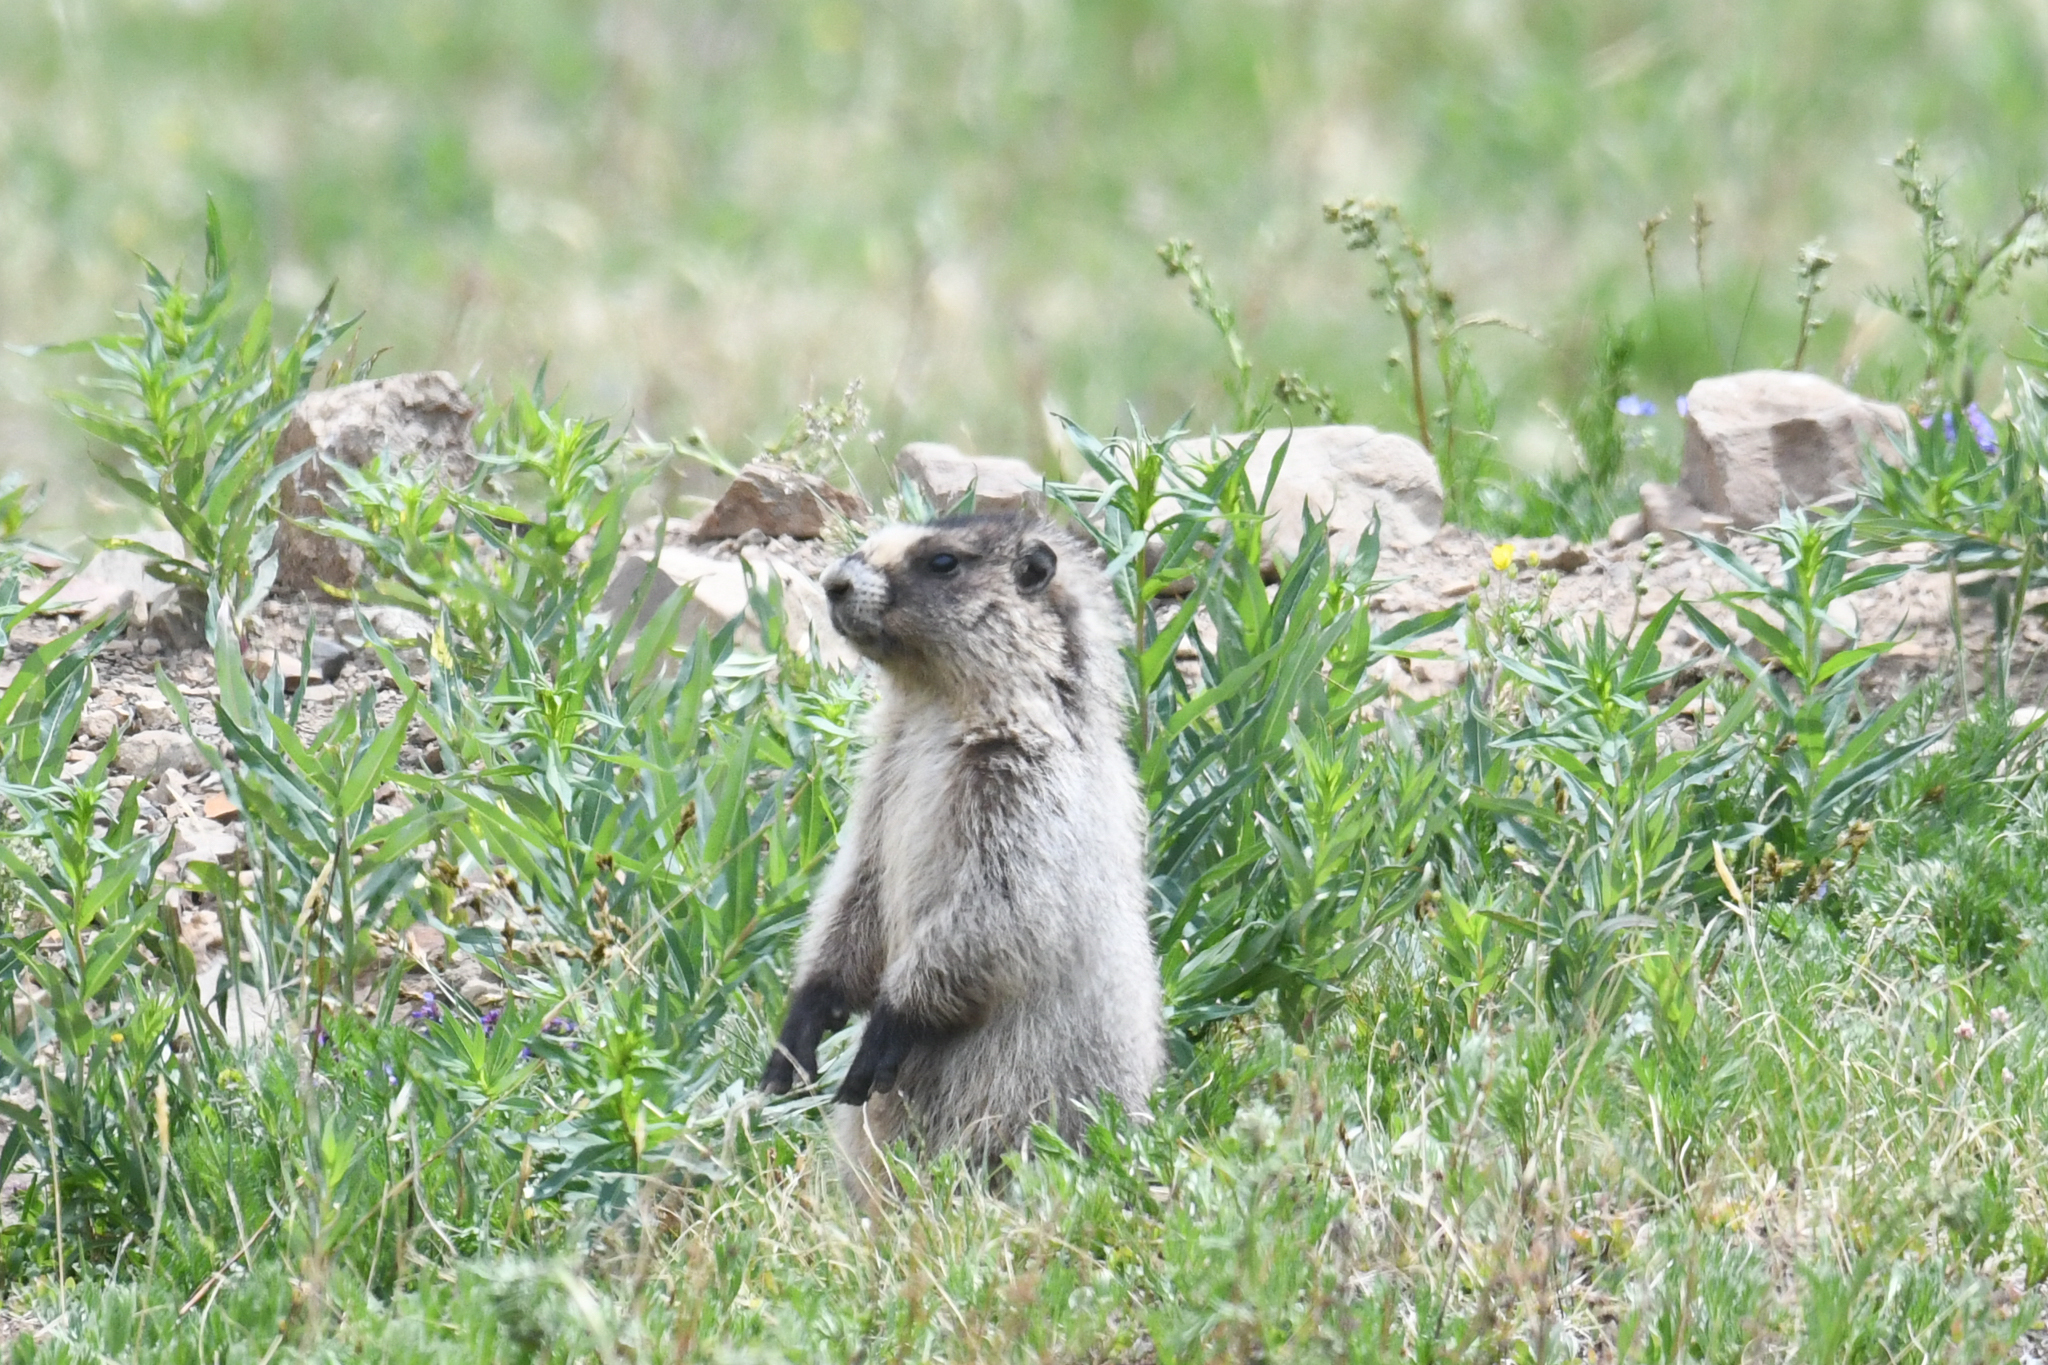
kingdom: Animalia
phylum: Chordata
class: Mammalia
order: Rodentia
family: Sciuridae
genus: Marmota
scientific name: Marmota caligata
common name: Hoary marmot
